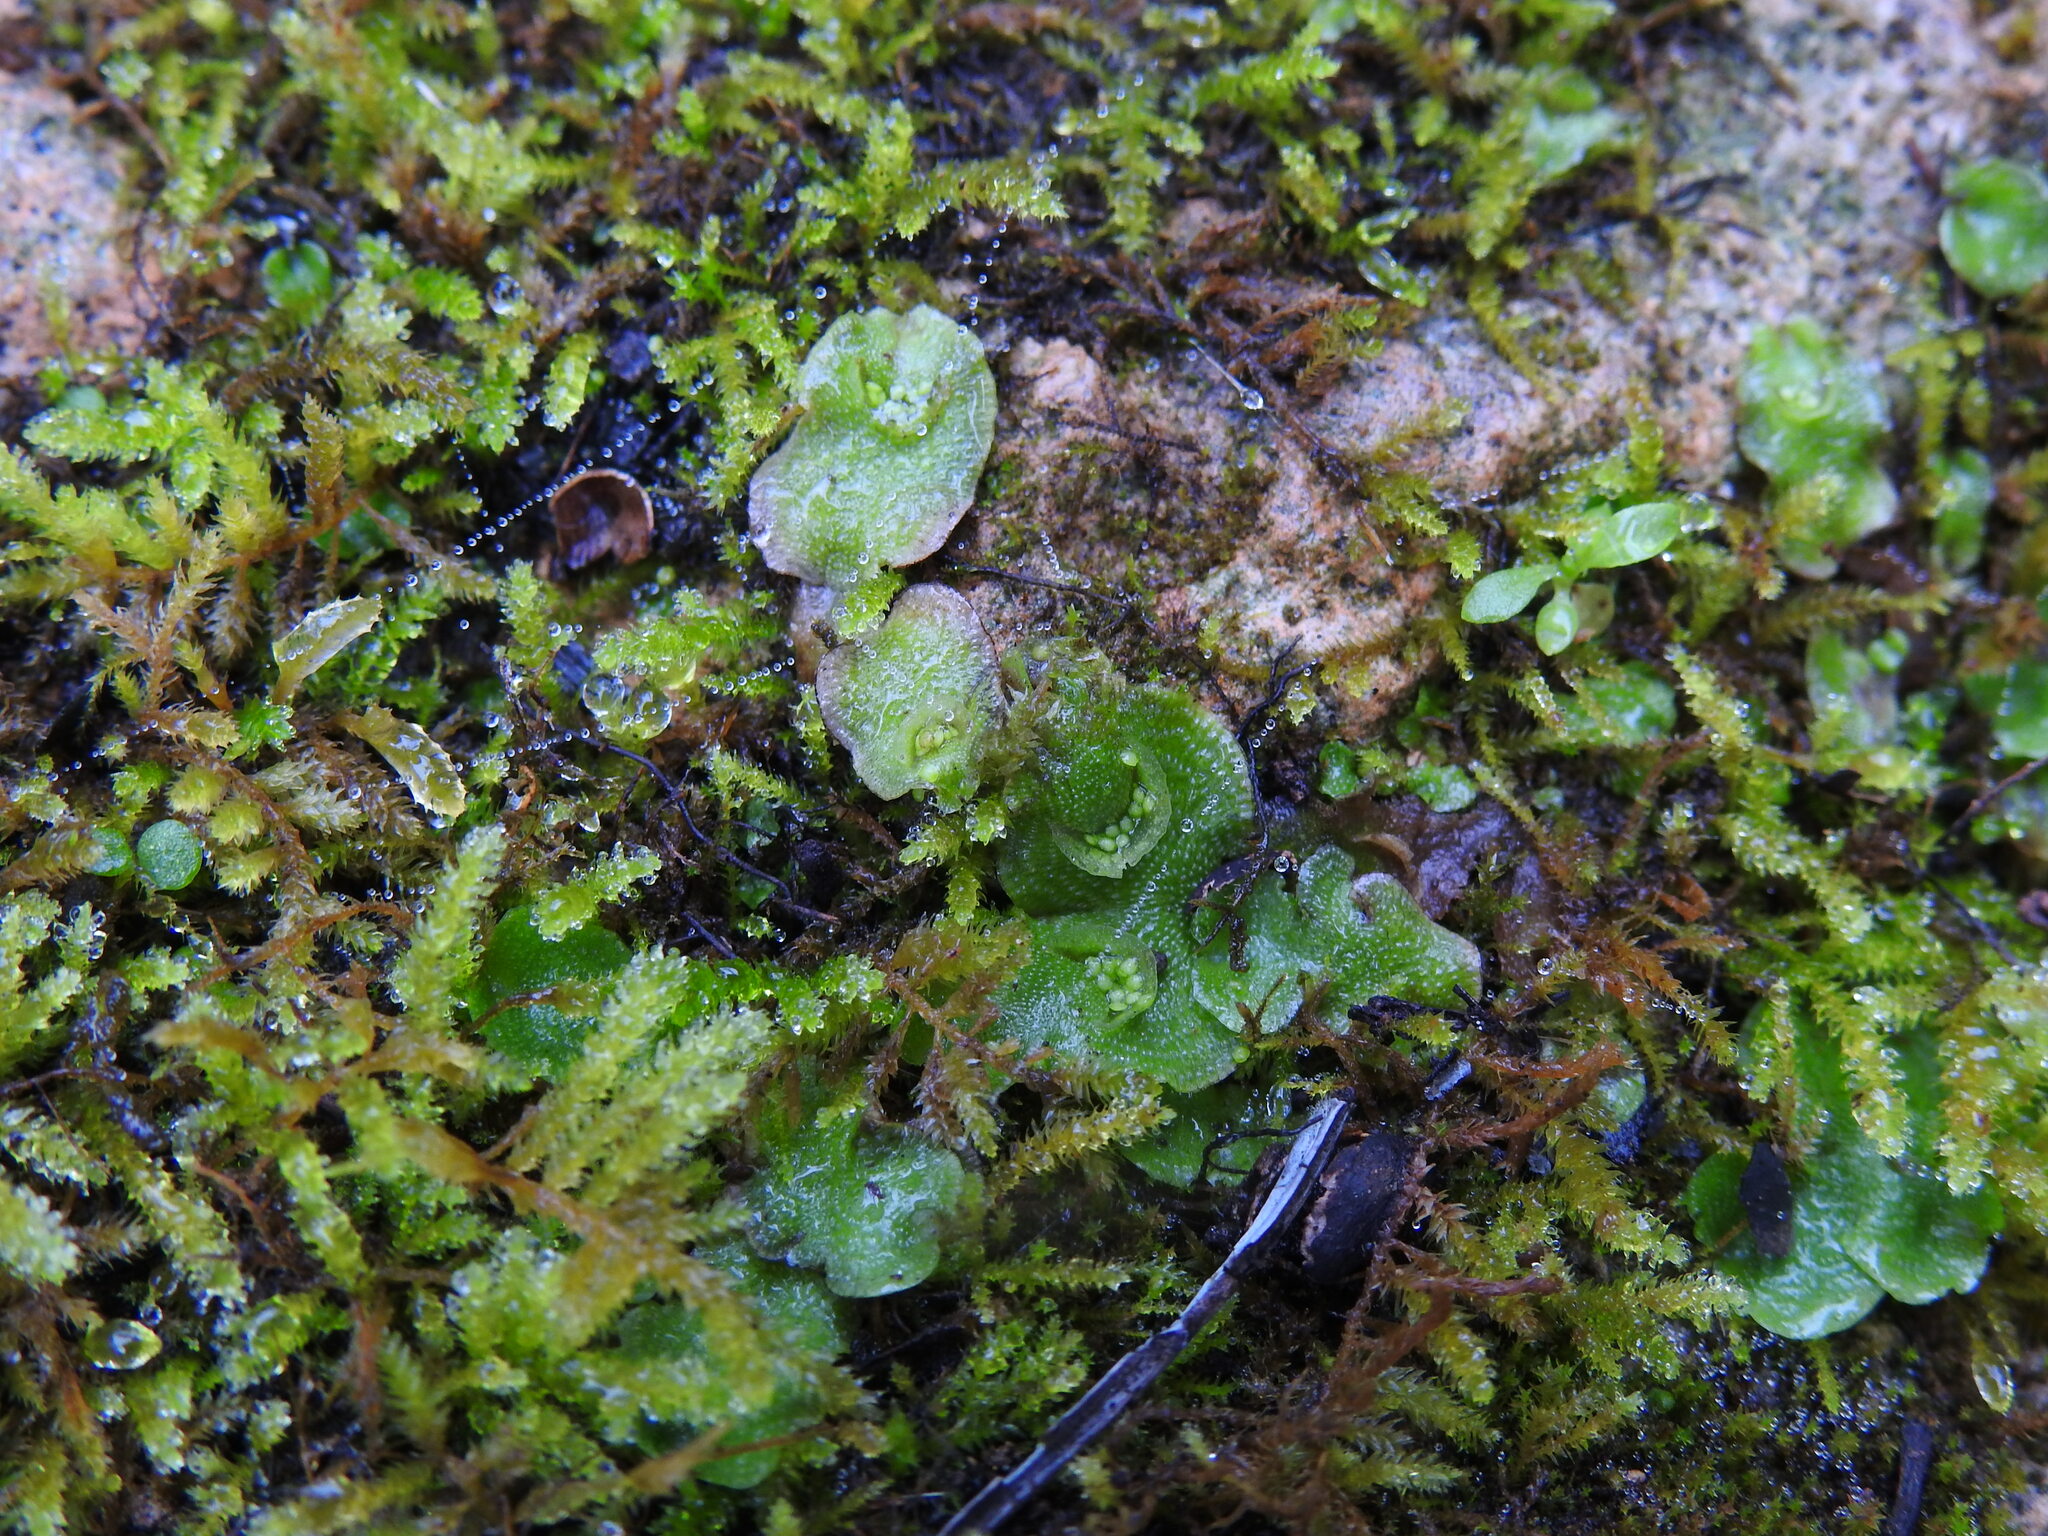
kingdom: Plantae
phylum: Marchantiophyta
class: Marchantiopsida
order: Lunulariales
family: Lunulariaceae
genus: Lunularia
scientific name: Lunularia cruciata
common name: Crescent-cup liverwort
